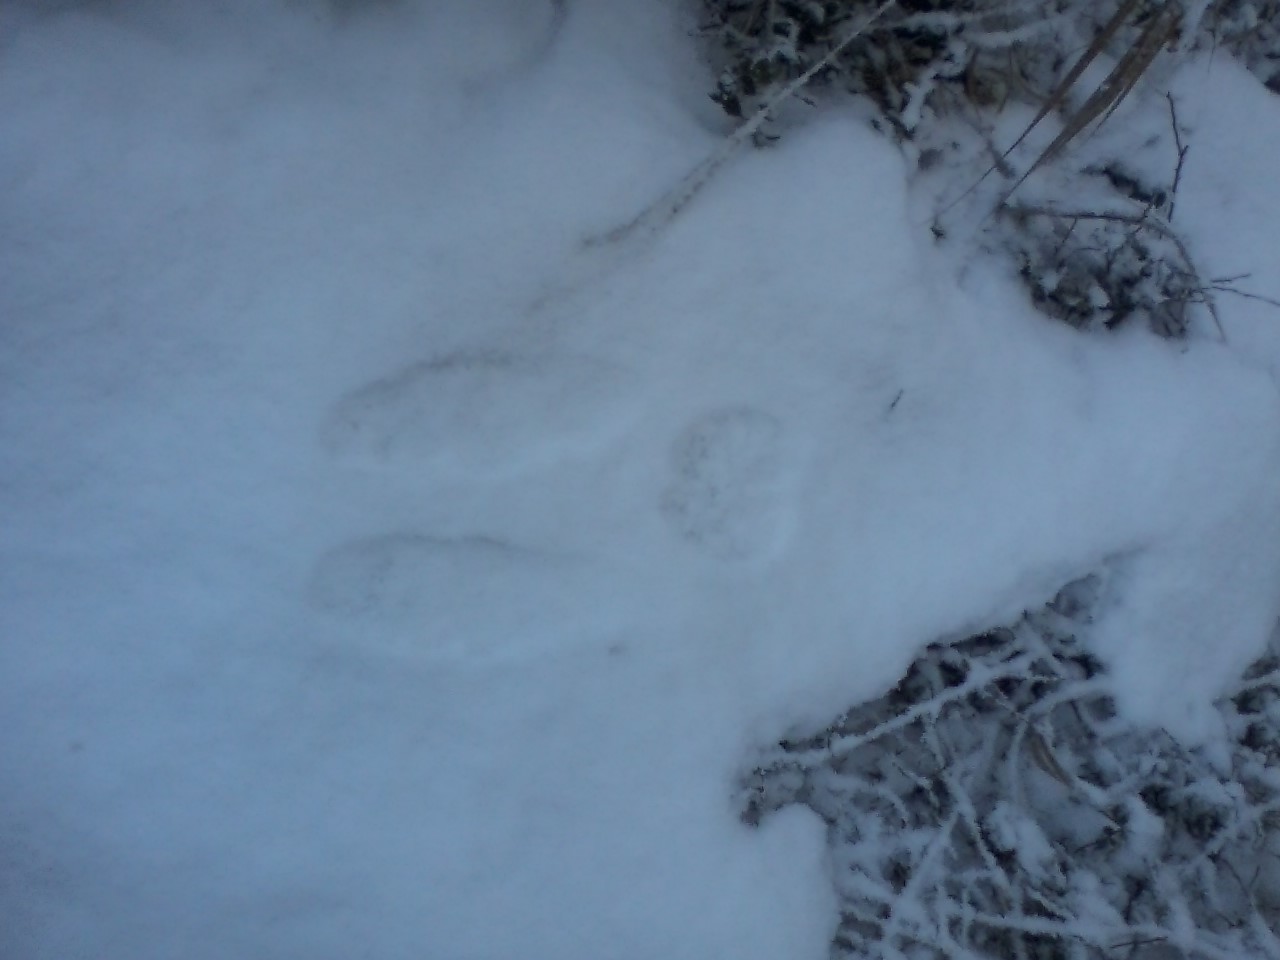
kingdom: Animalia
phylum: Chordata
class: Mammalia
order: Lagomorpha
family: Leporidae
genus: Lepus
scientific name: Lepus americanus
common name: Snowshoe hare
